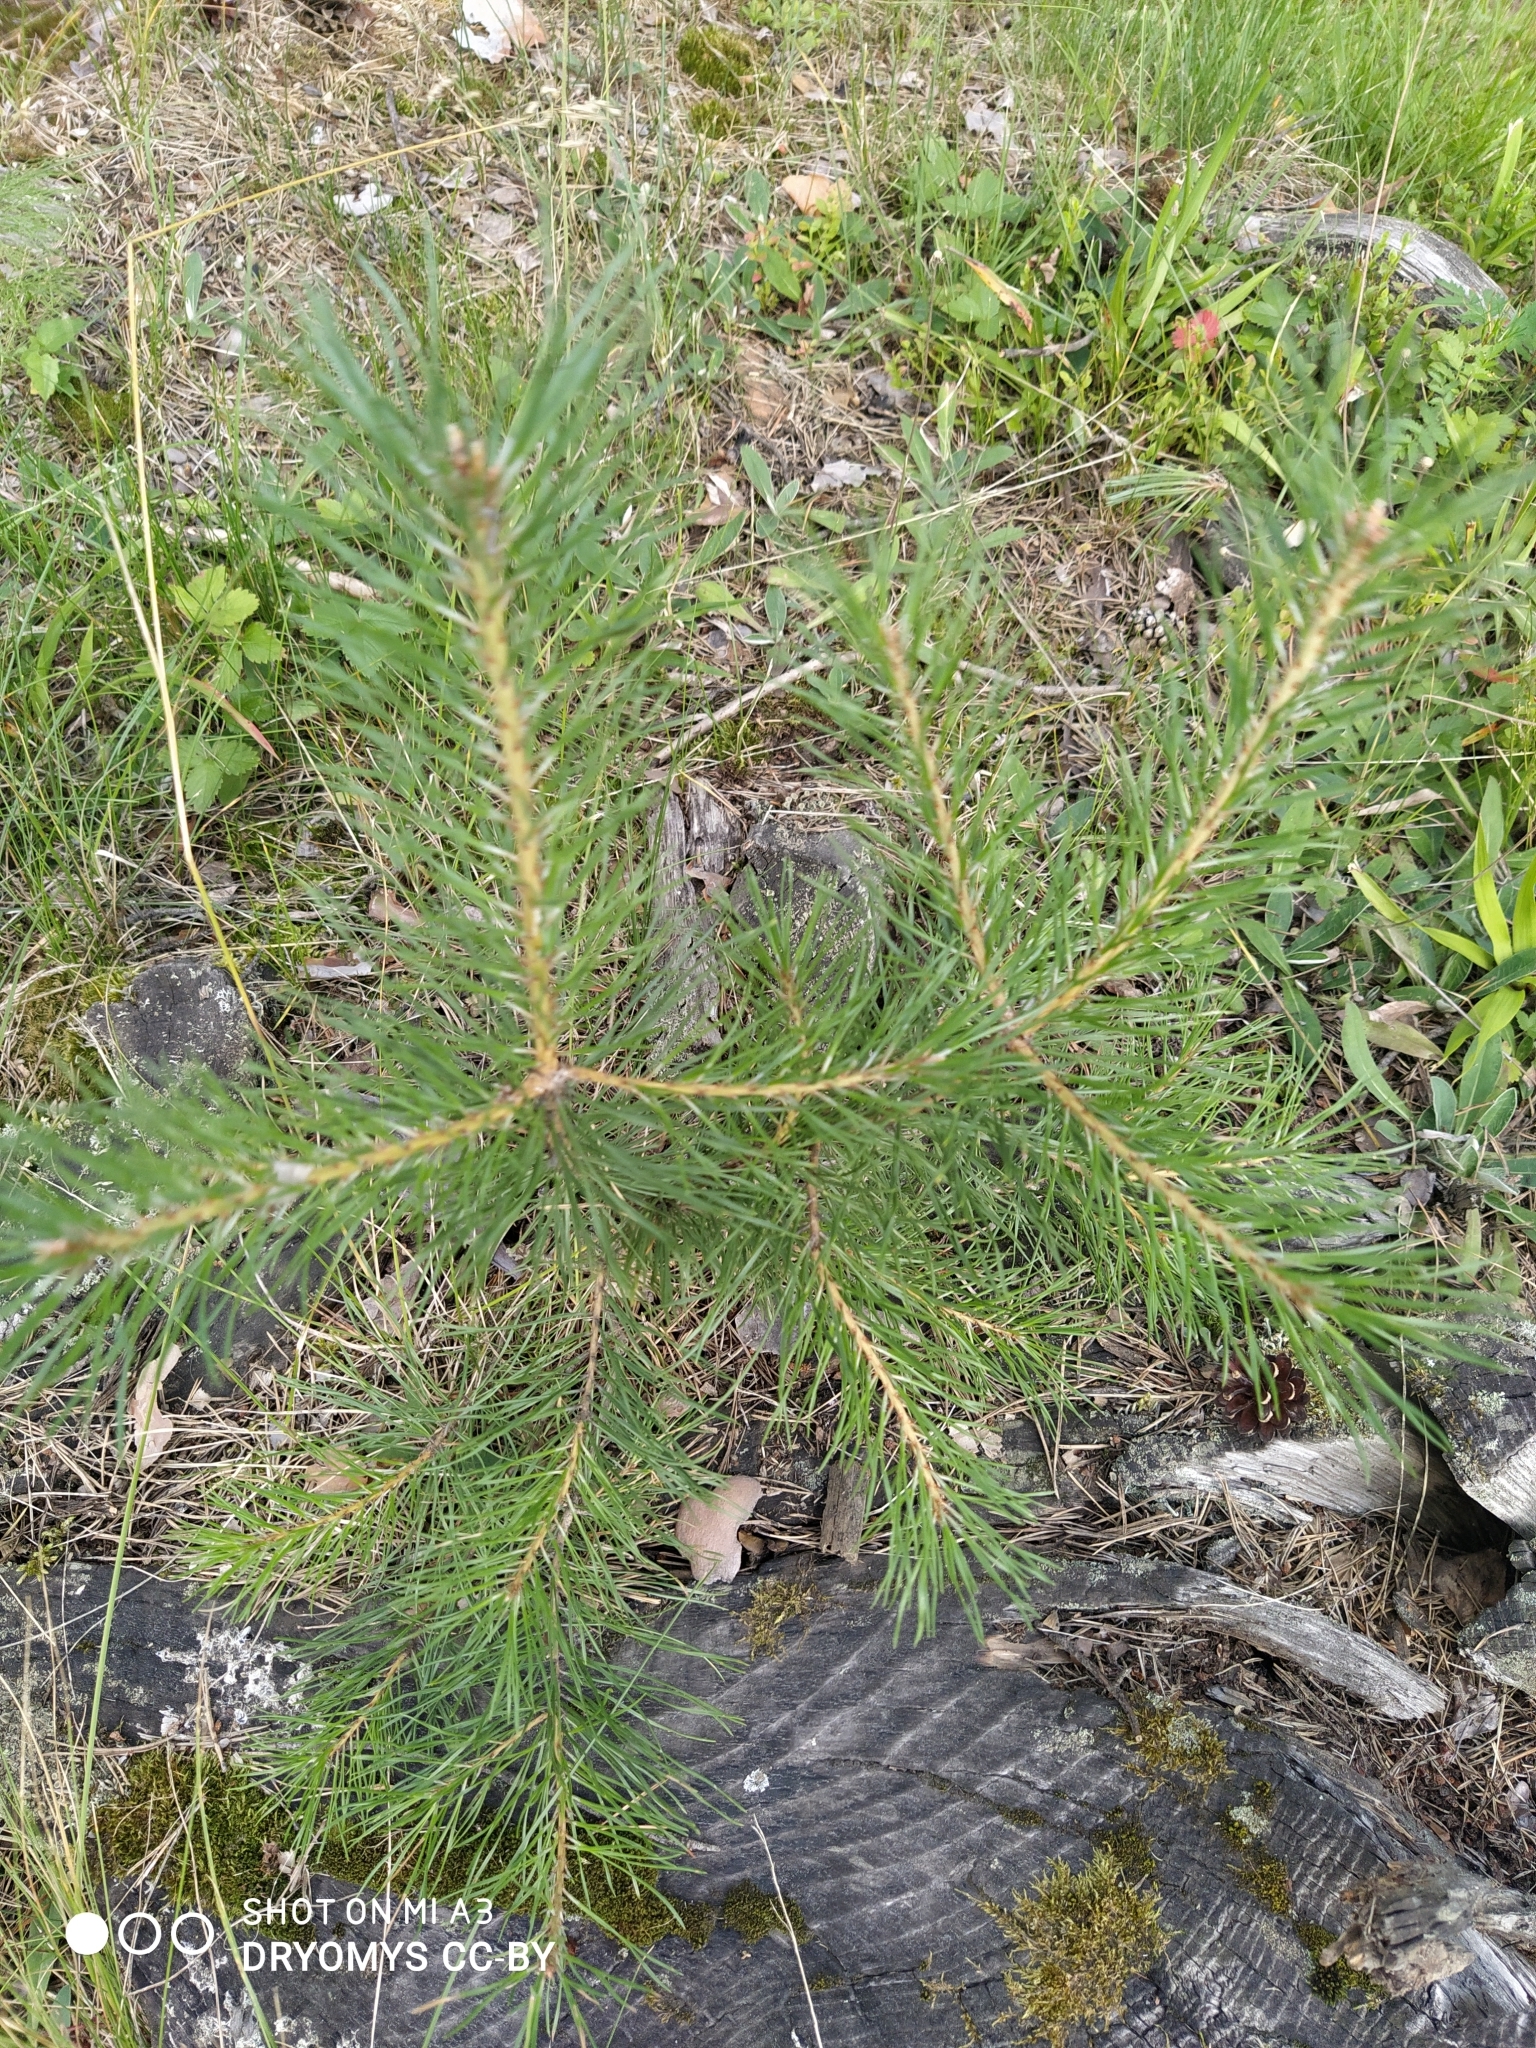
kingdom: Plantae
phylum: Tracheophyta
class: Pinopsida
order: Pinales
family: Pinaceae
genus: Pinus
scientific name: Pinus sylvestris
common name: Scots pine
